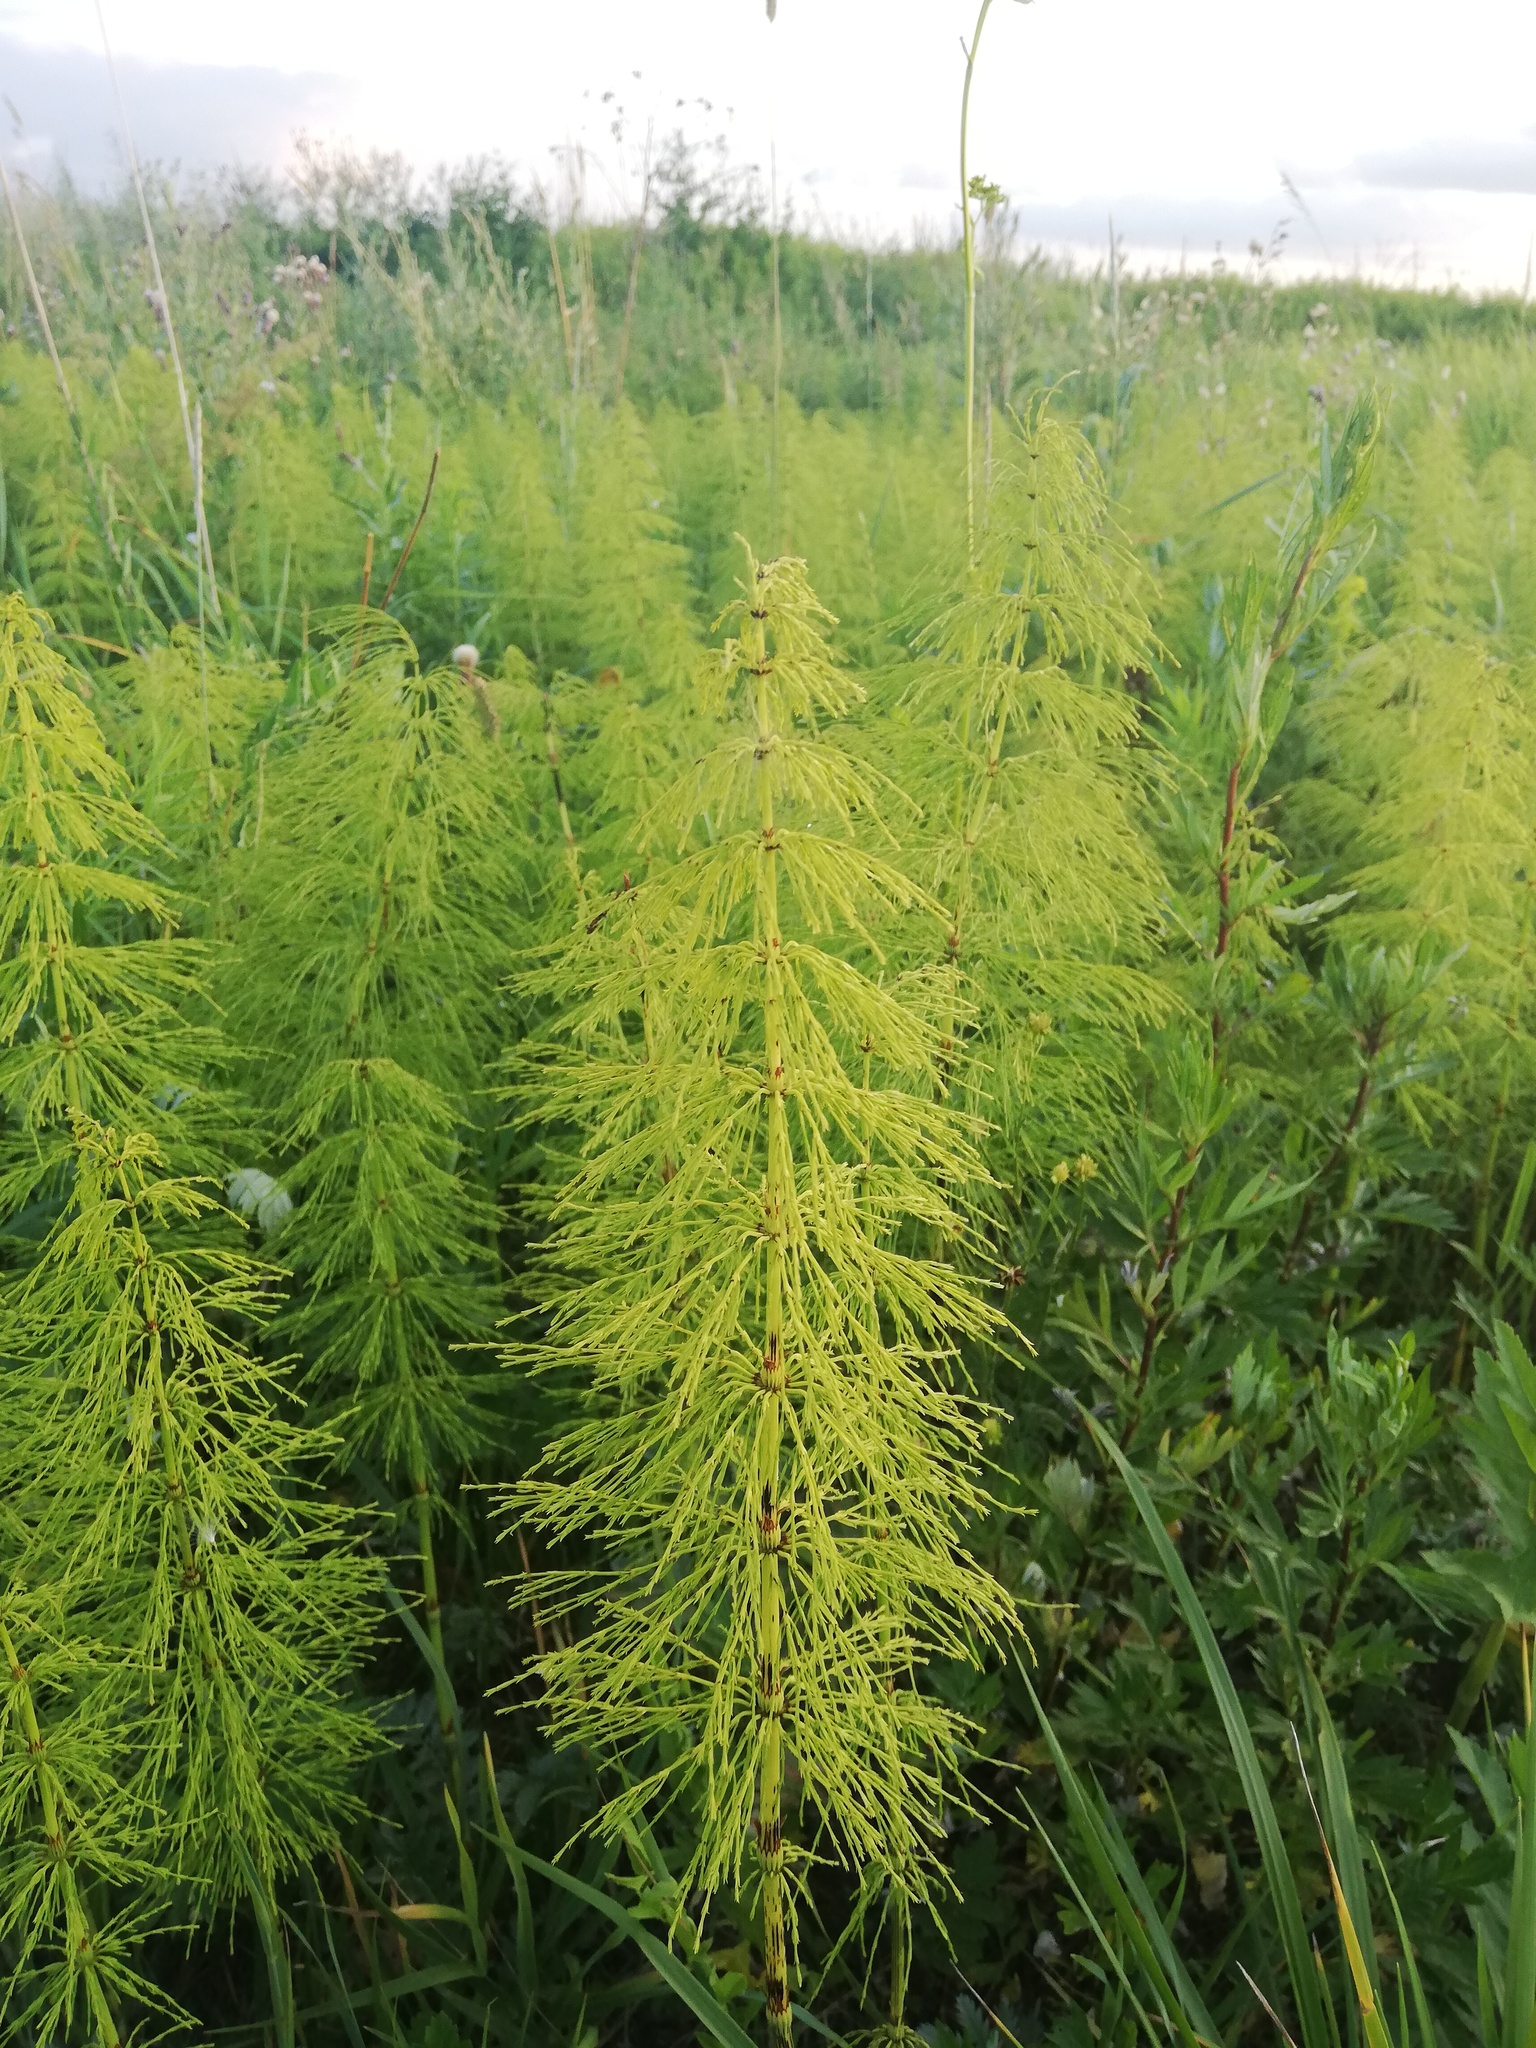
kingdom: Plantae
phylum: Tracheophyta
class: Polypodiopsida
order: Equisetales
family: Equisetaceae
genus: Equisetum
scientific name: Equisetum sylvaticum
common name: Wood horsetail
